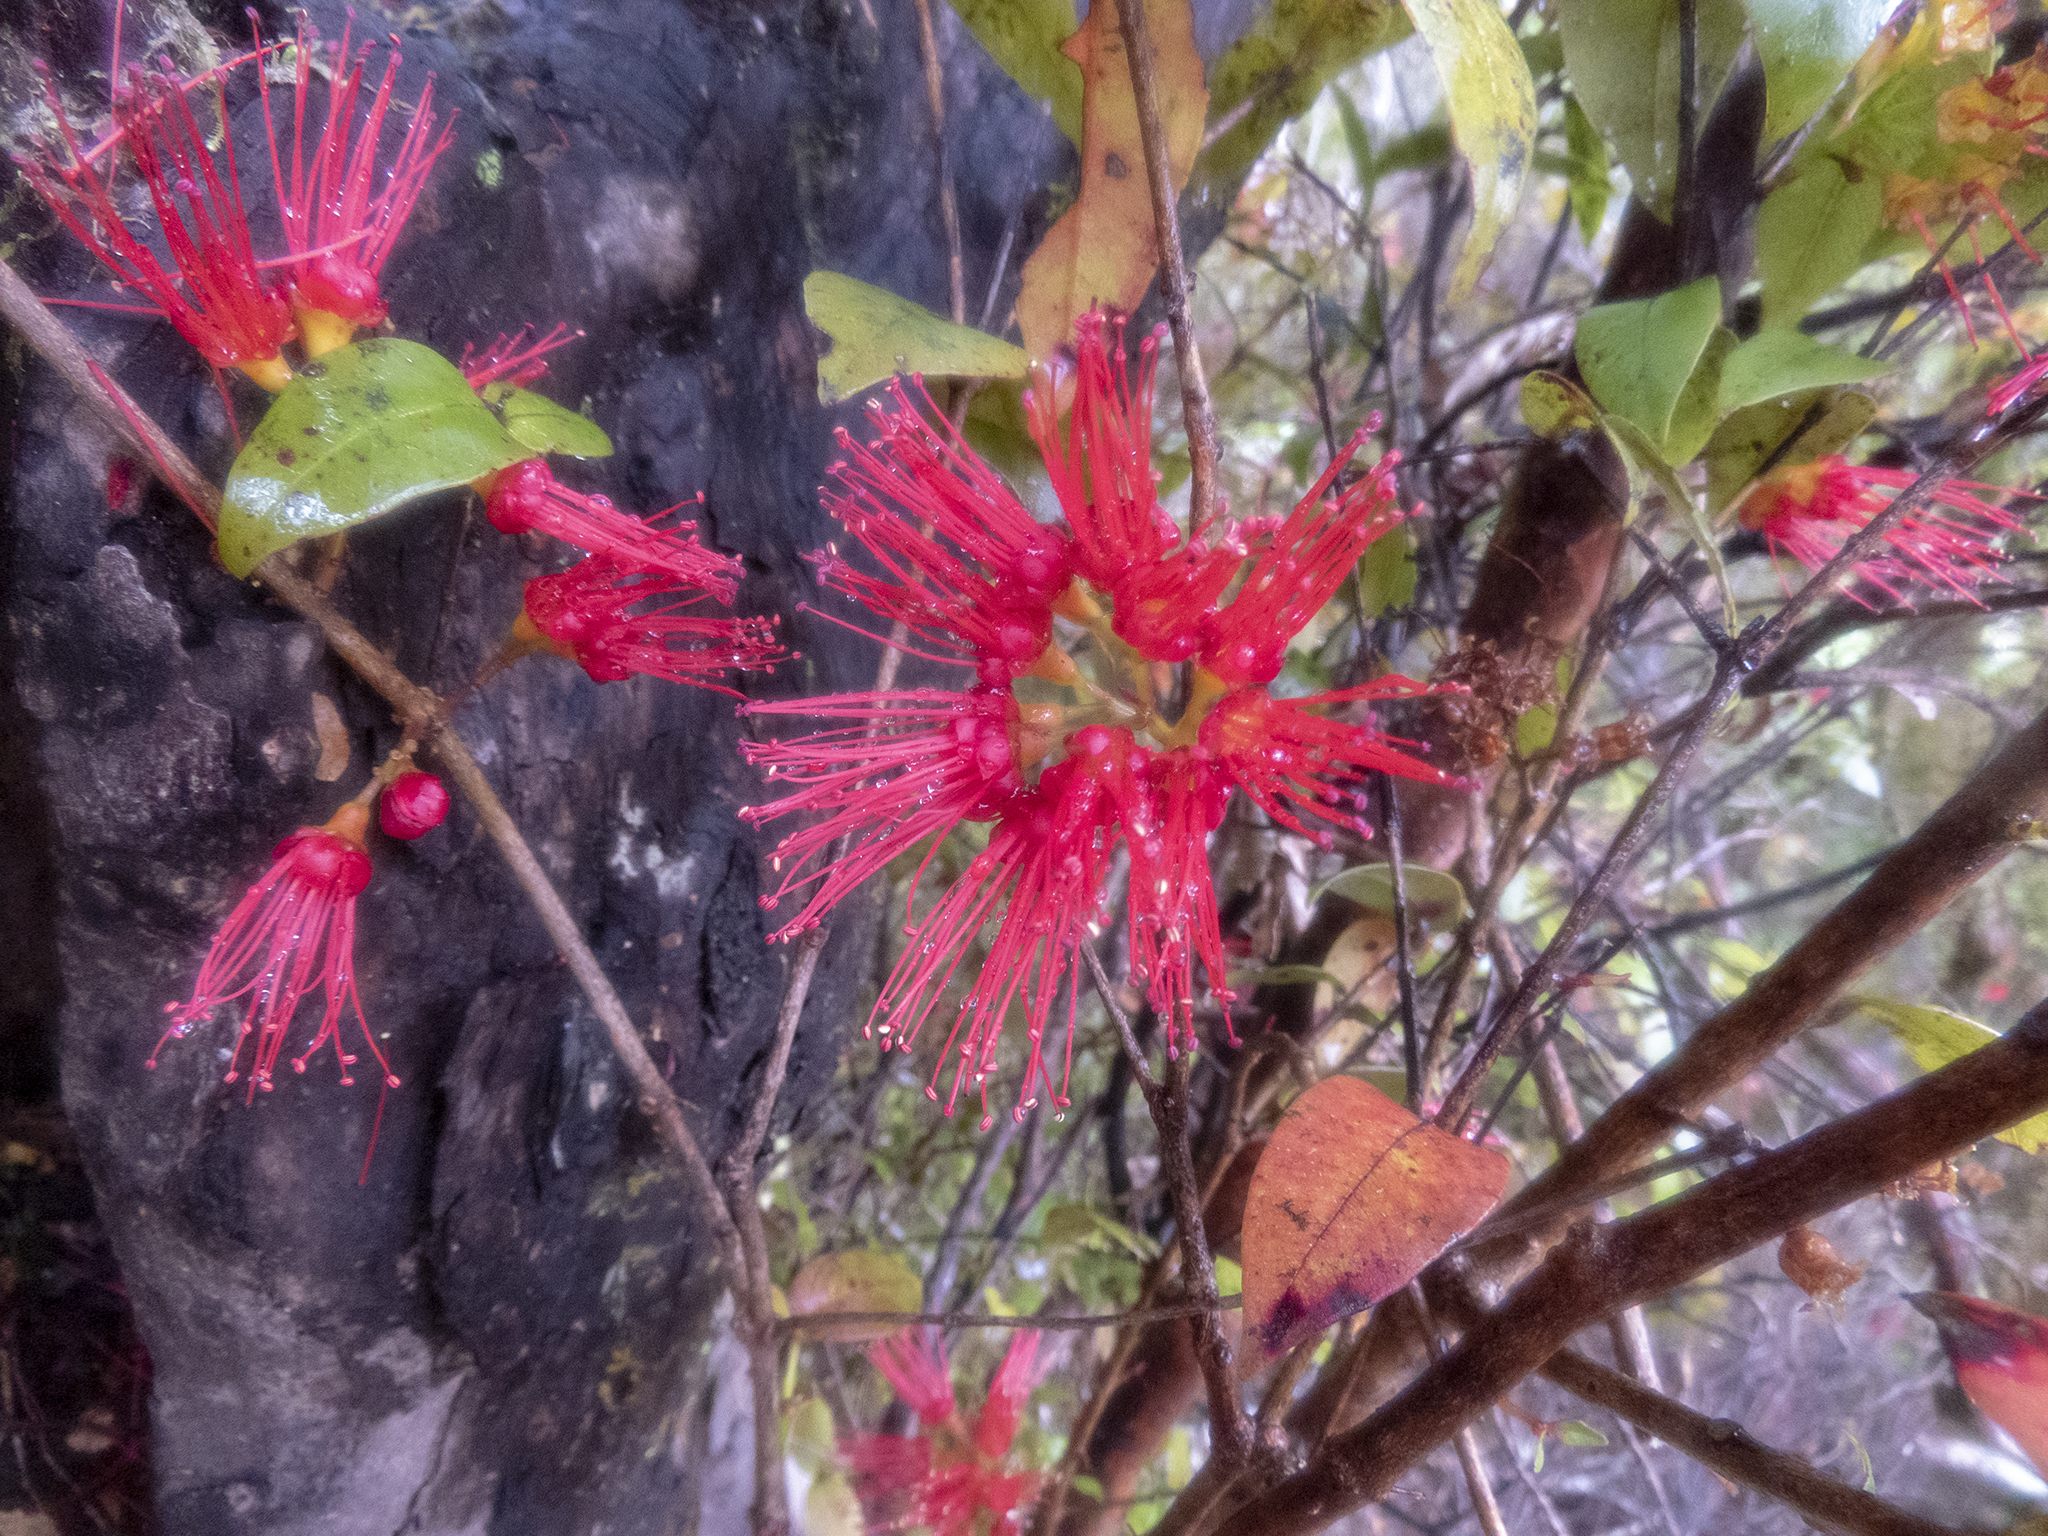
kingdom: Plantae
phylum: Tracheophyta
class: Magnoliopsida
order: Myrtales
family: Myrtaceae
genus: Metrosideros
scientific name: Metrosideros parkinsonii
